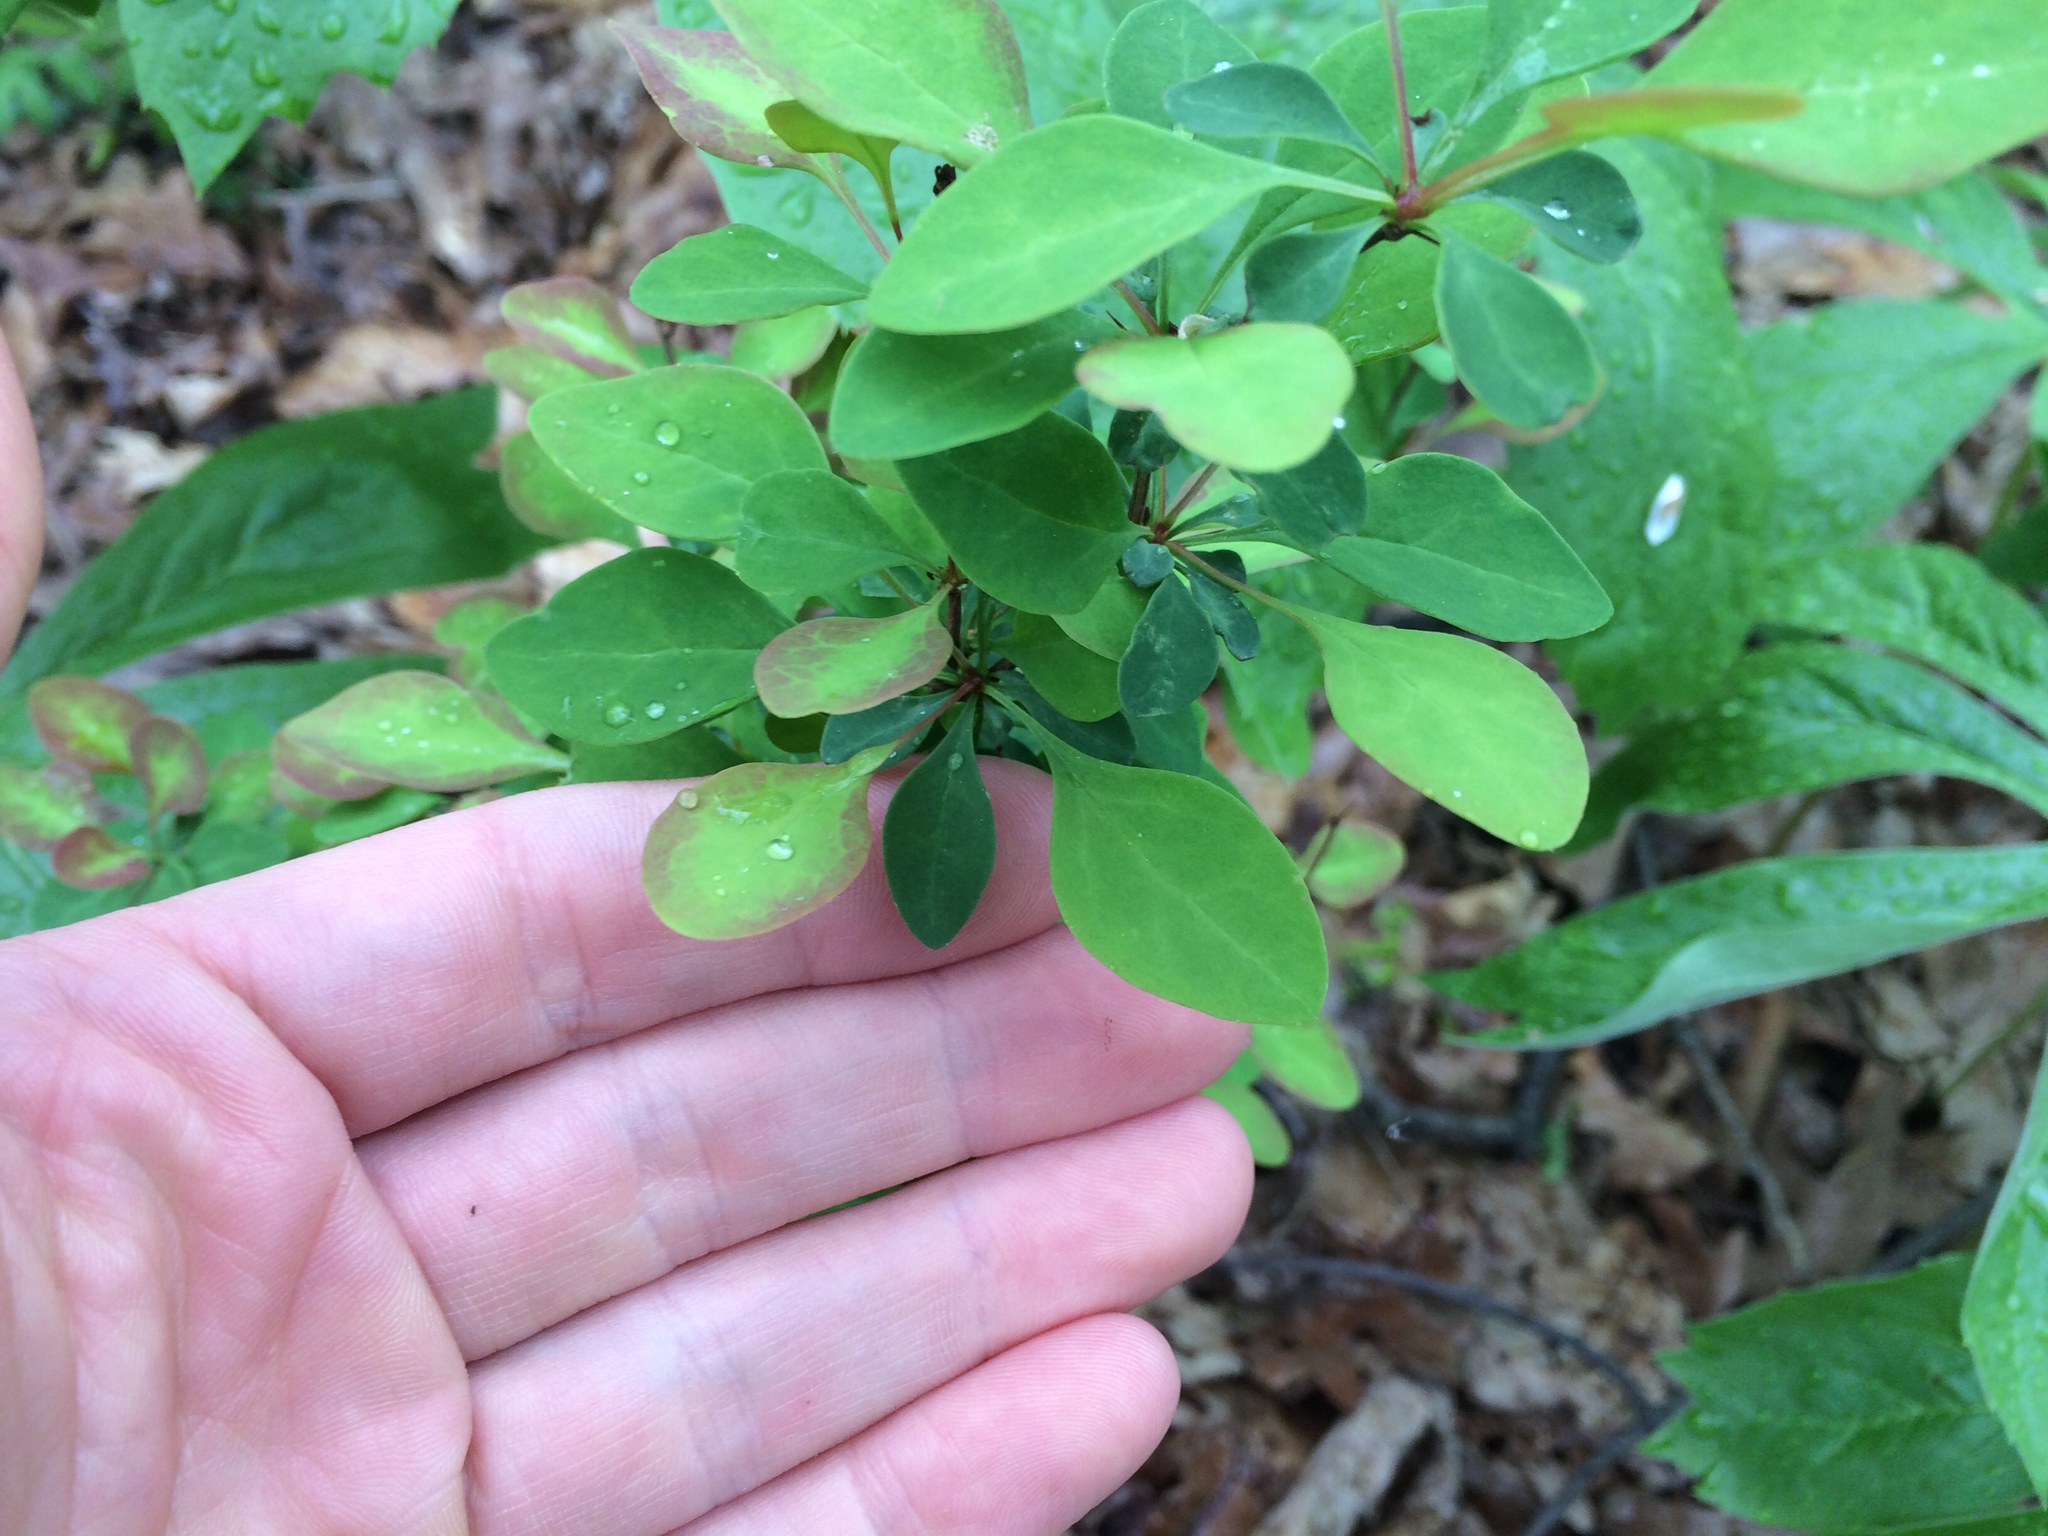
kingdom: Plantae
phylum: Tracheophyta
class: Magnoliopsida
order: Ranunculales
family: Berberidaceae
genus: Berberis
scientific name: Berberis thunbergii
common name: Japanese barberry
